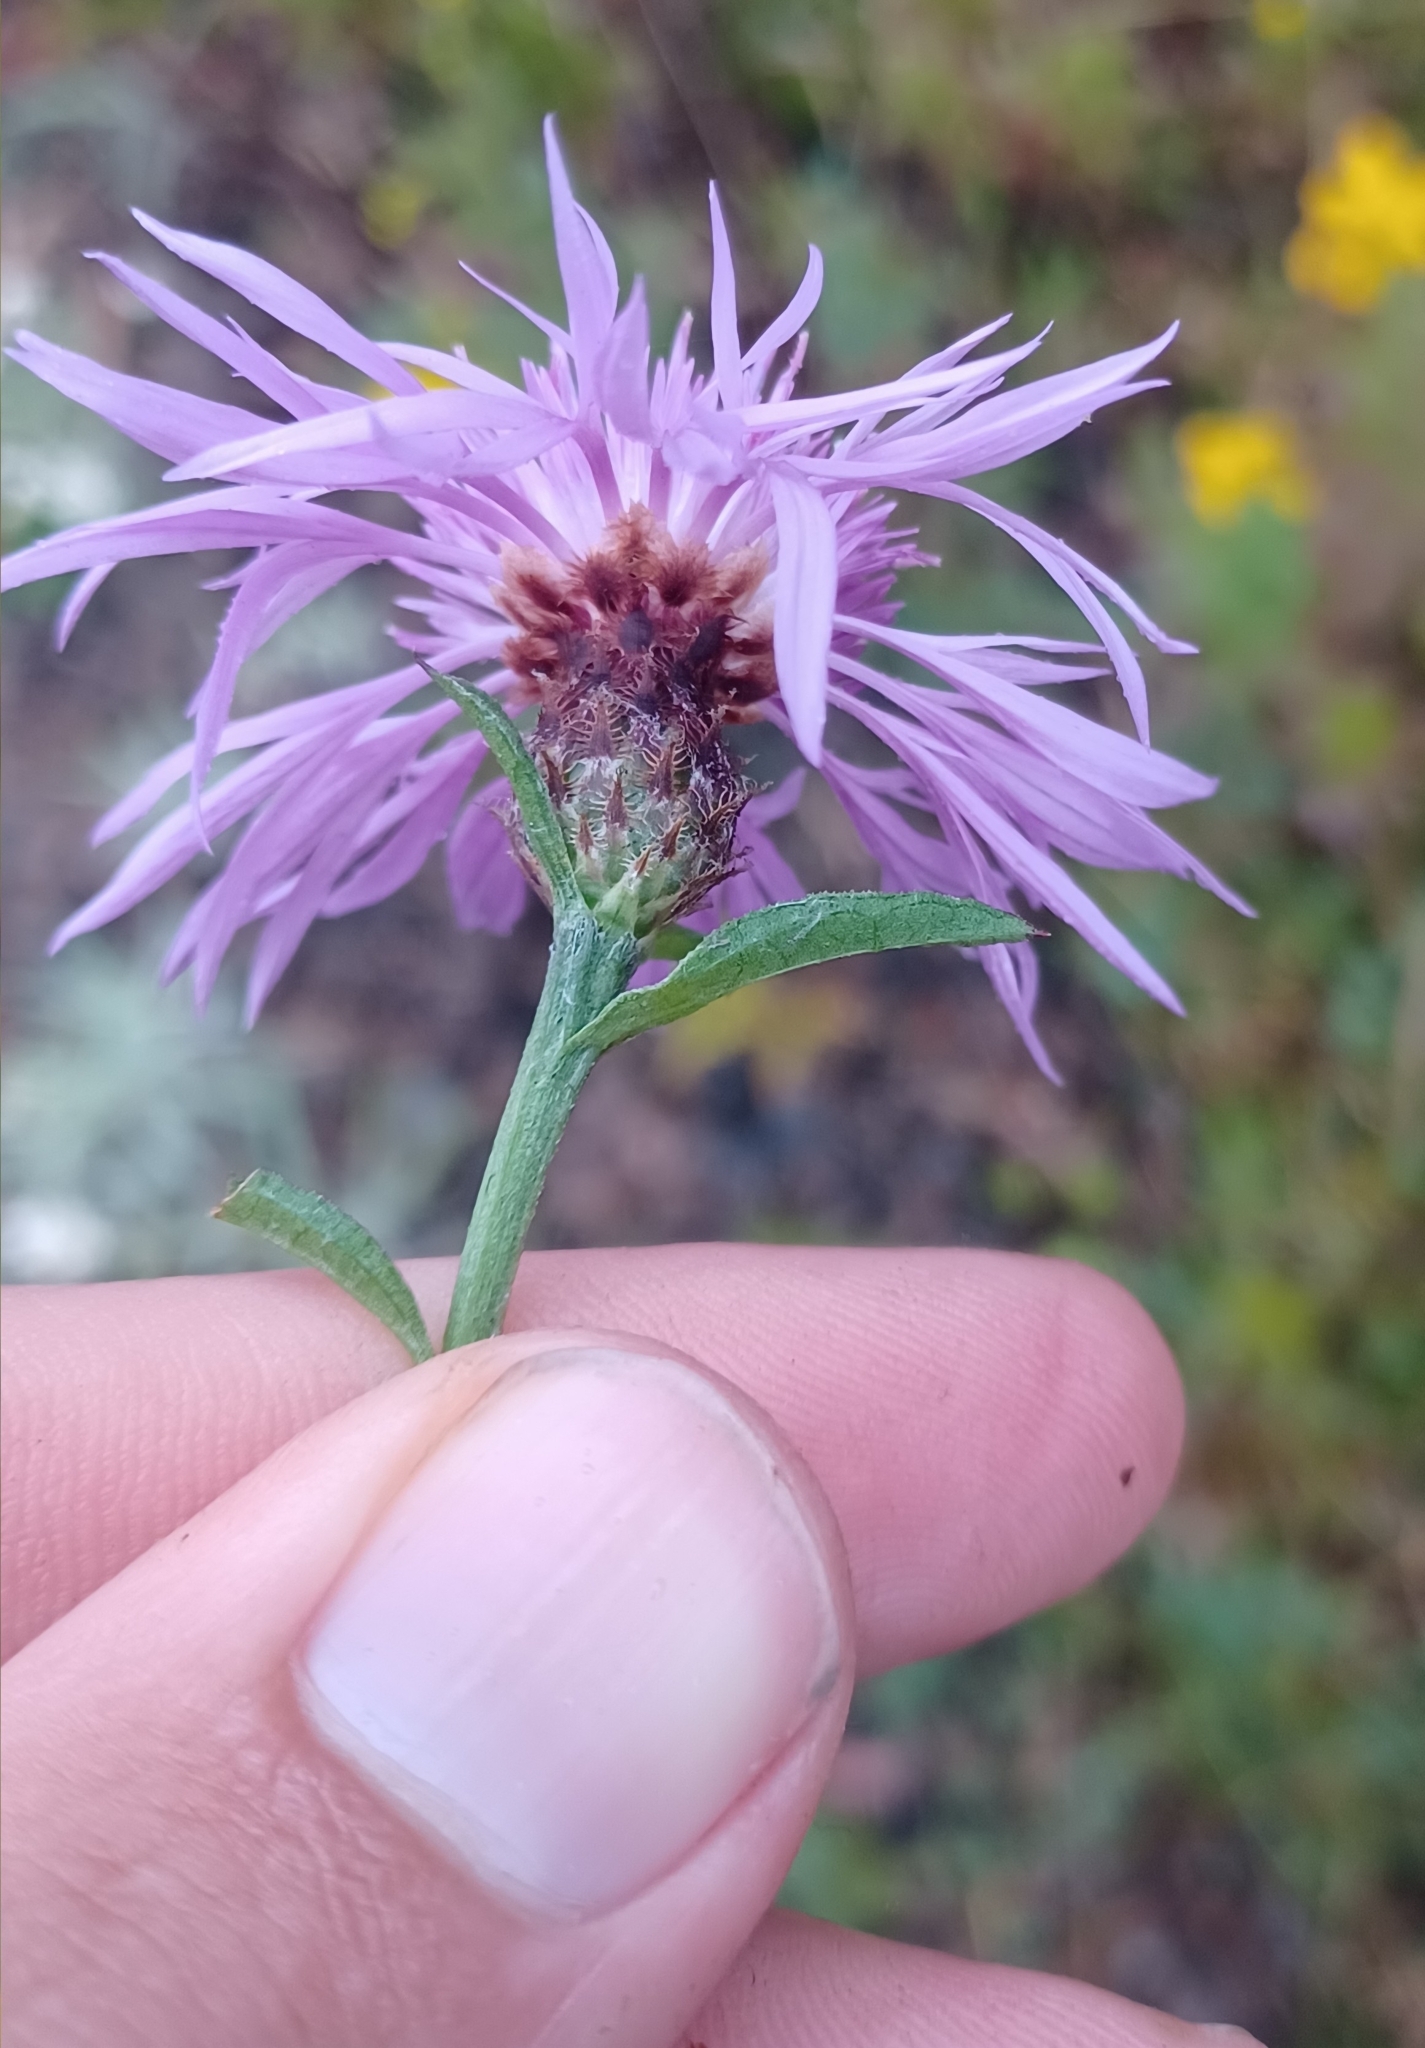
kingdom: Plantae
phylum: Tracheophyta
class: Magnoliopsida
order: Asterales
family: Asteraceae
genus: Centaurea
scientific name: Centaurea moncktonii
